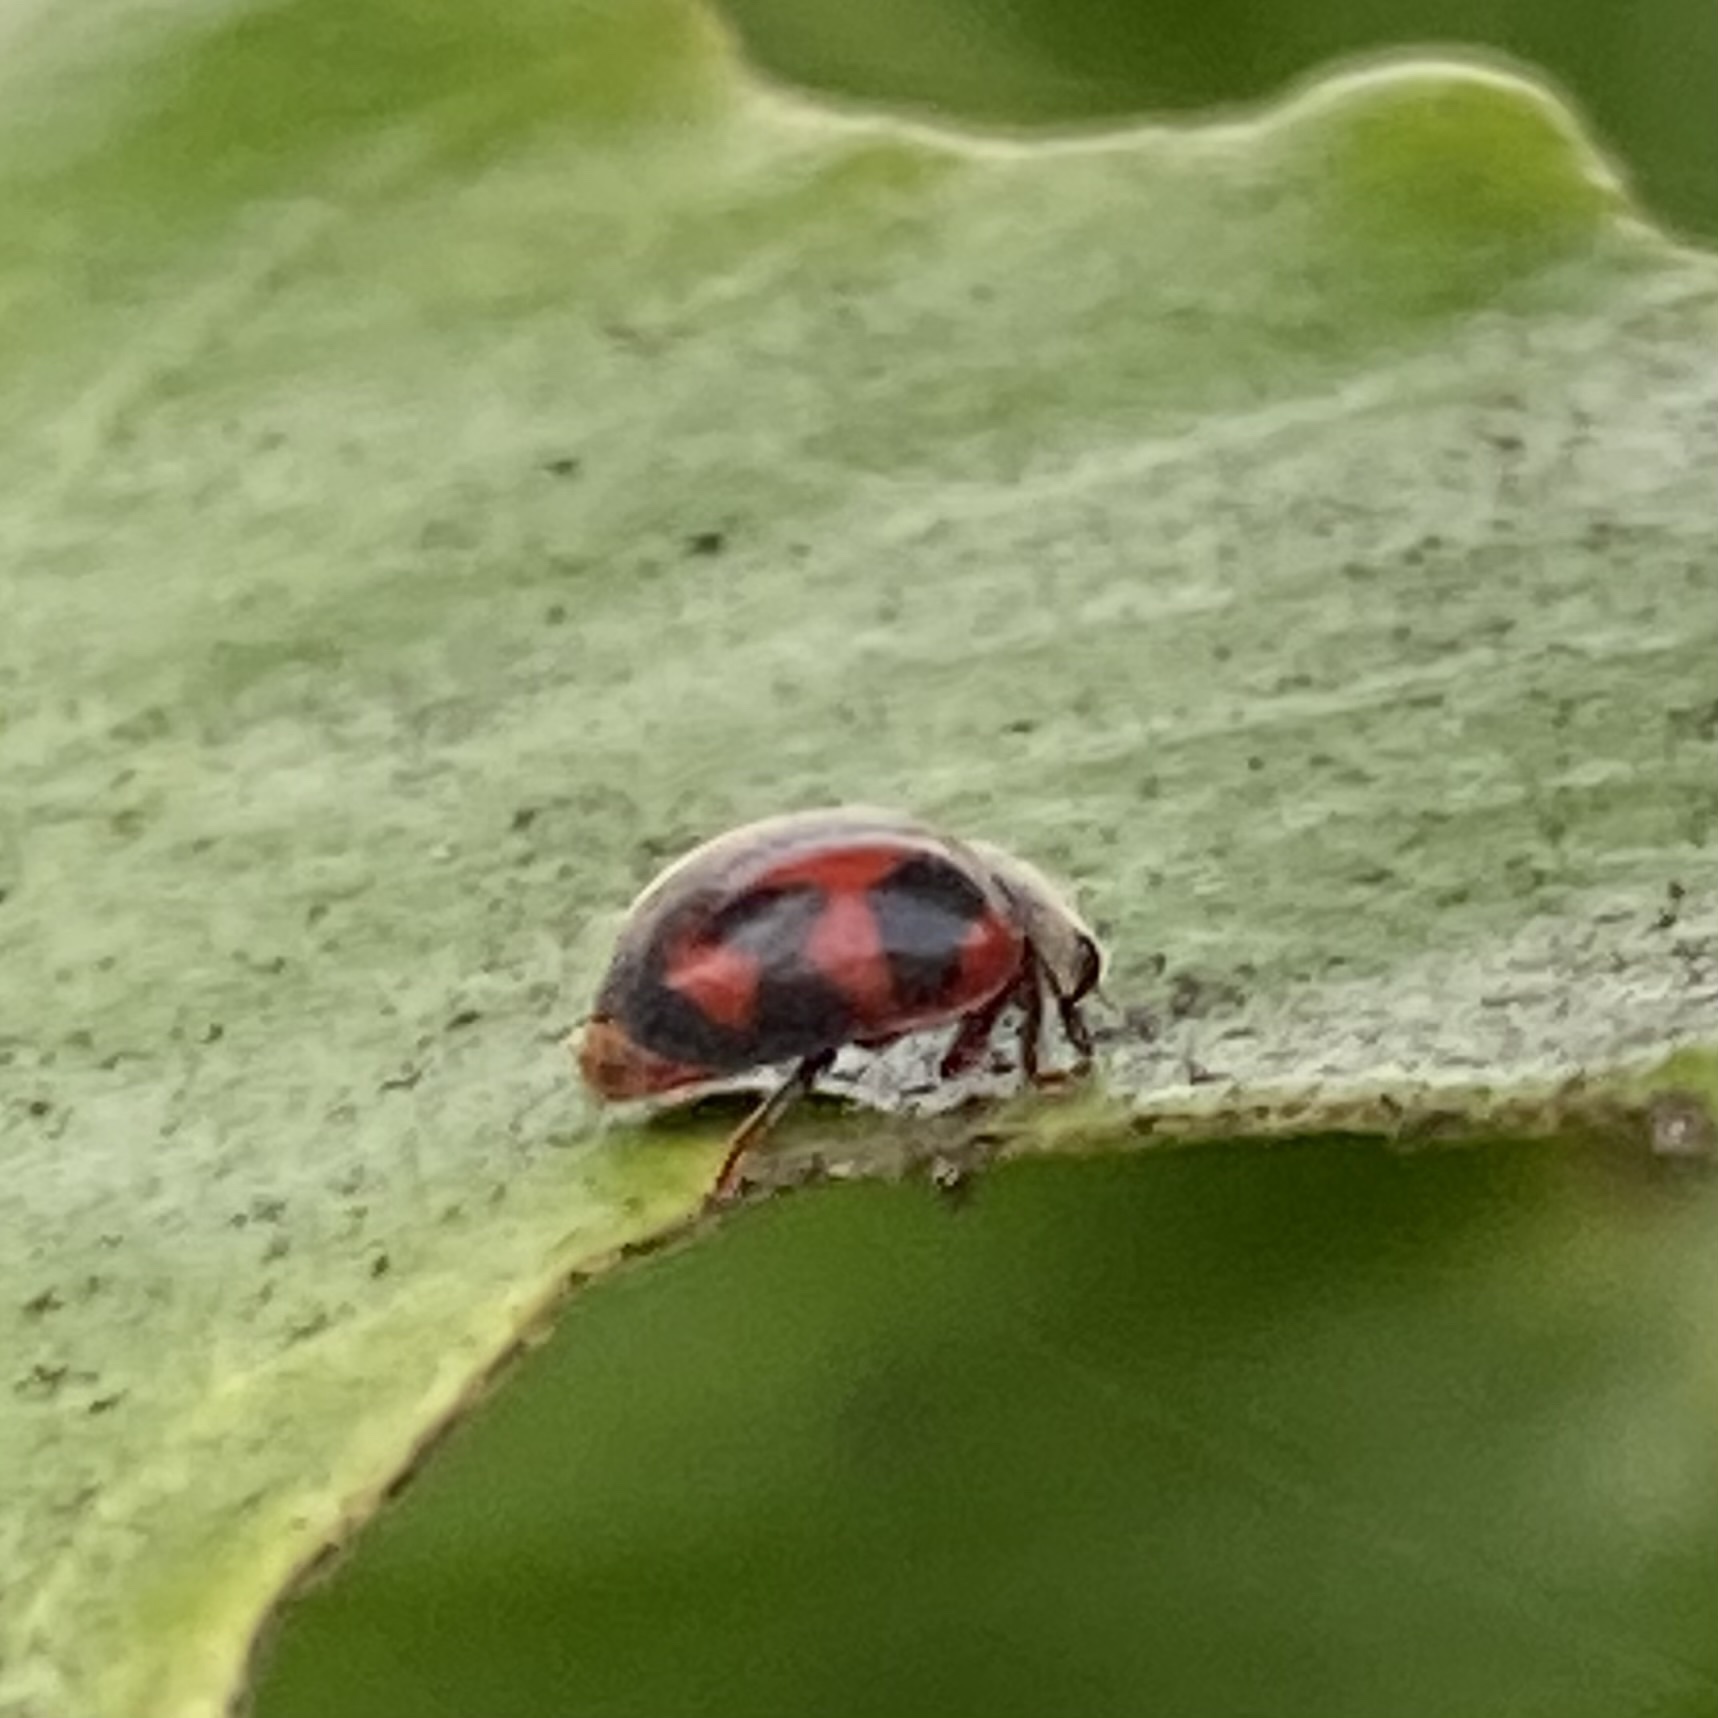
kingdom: Animalia
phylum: Arthropoda
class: Insecta
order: Coleoptera
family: Coccinellidae
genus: Novius
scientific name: Novius cardinalis
